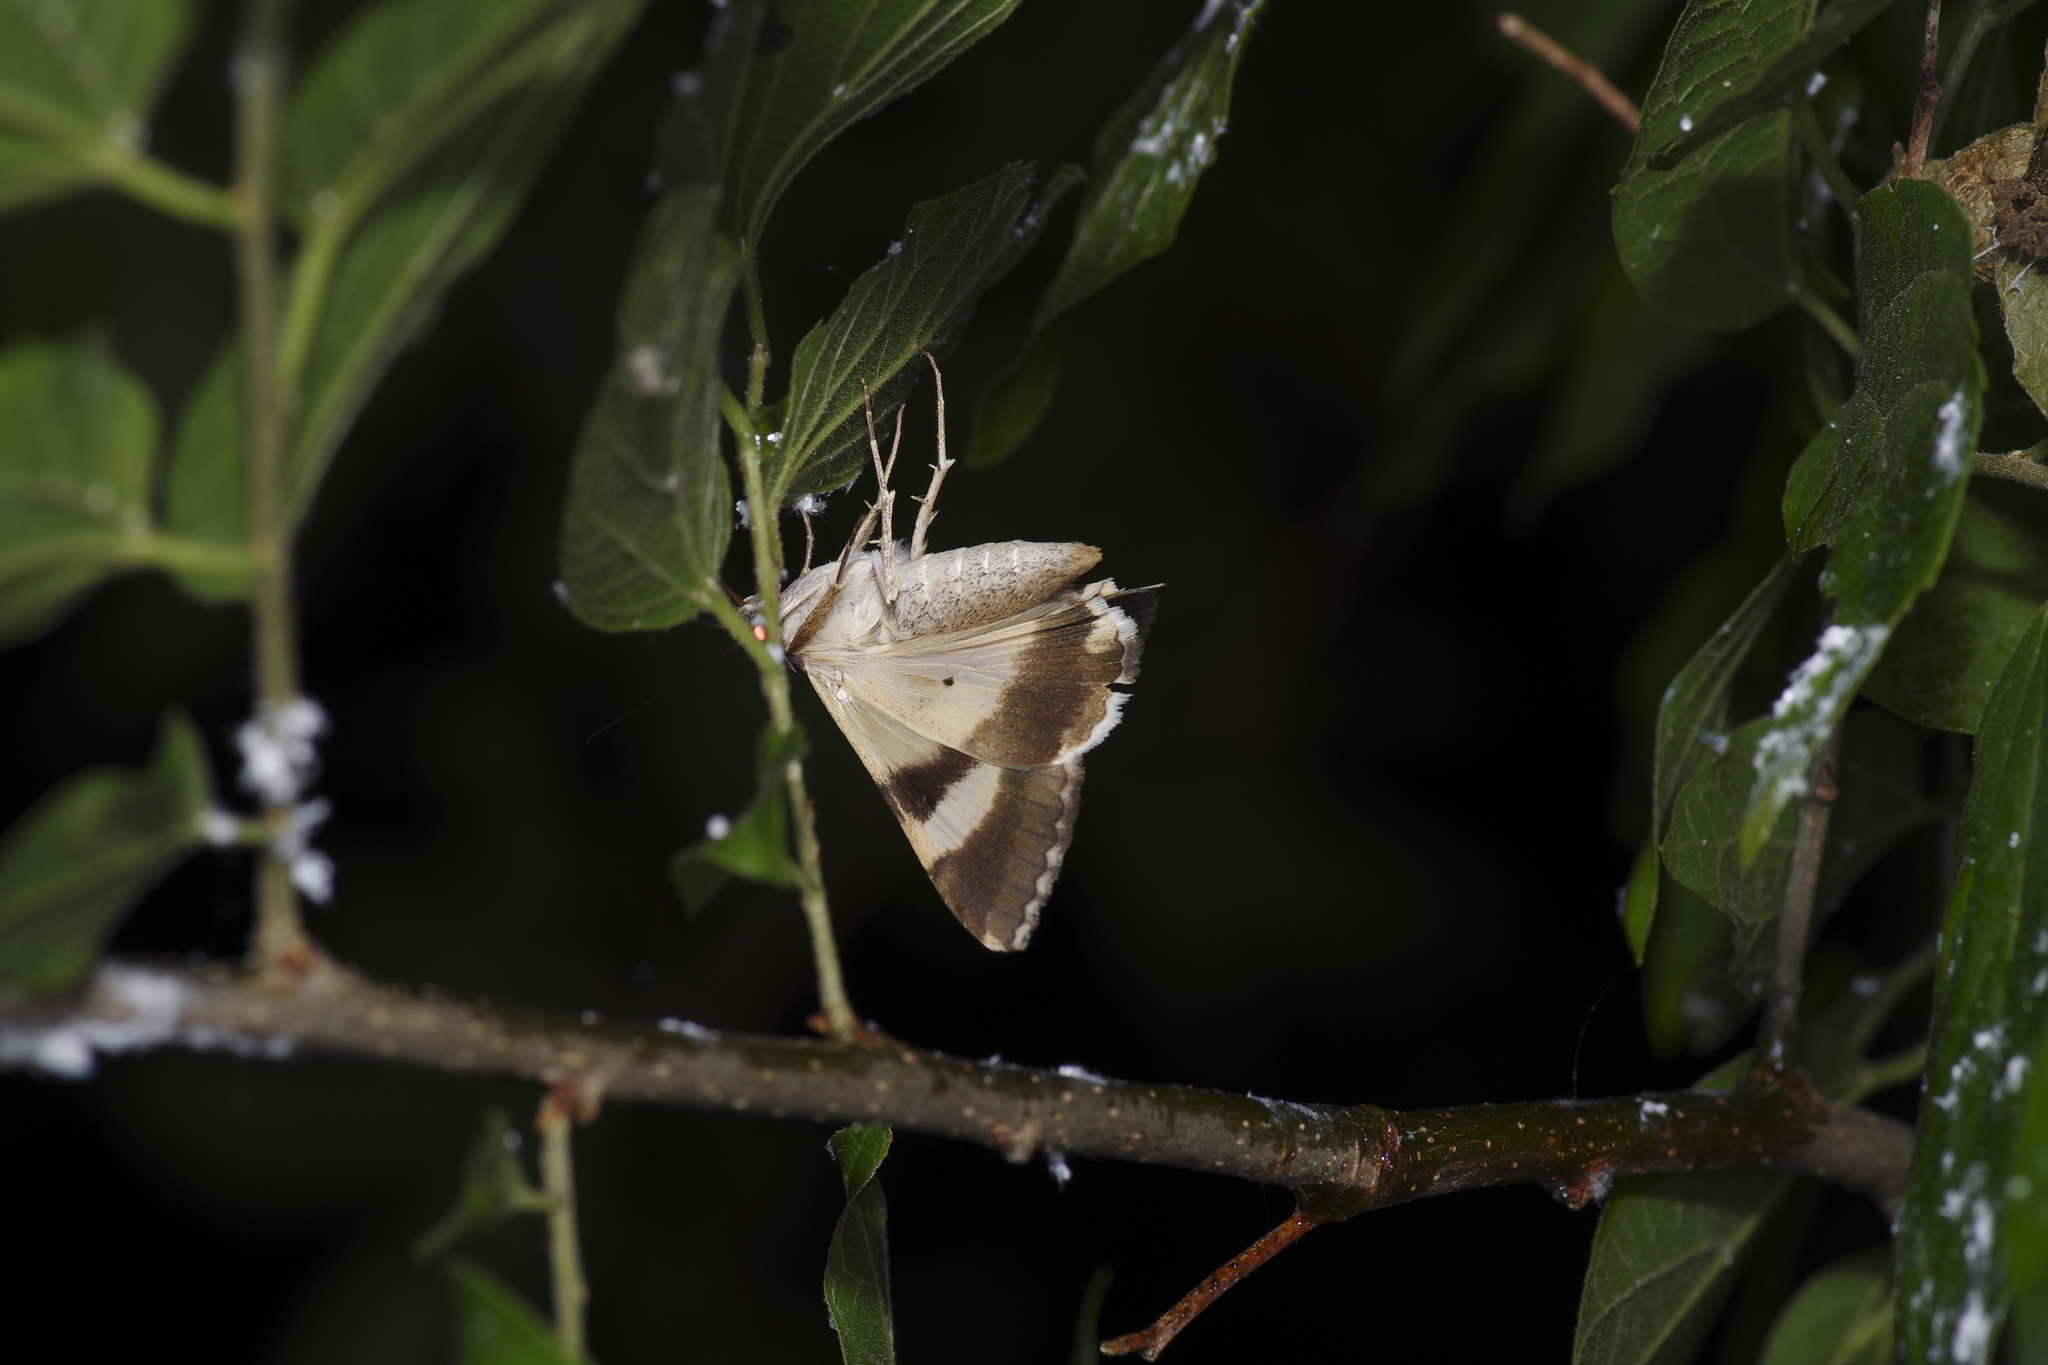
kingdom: Animalia
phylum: Arthropoda
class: Insecta
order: Lepidoptera
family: Erebidae
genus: Melipotis
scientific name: Melipotis indomita
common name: Moth
